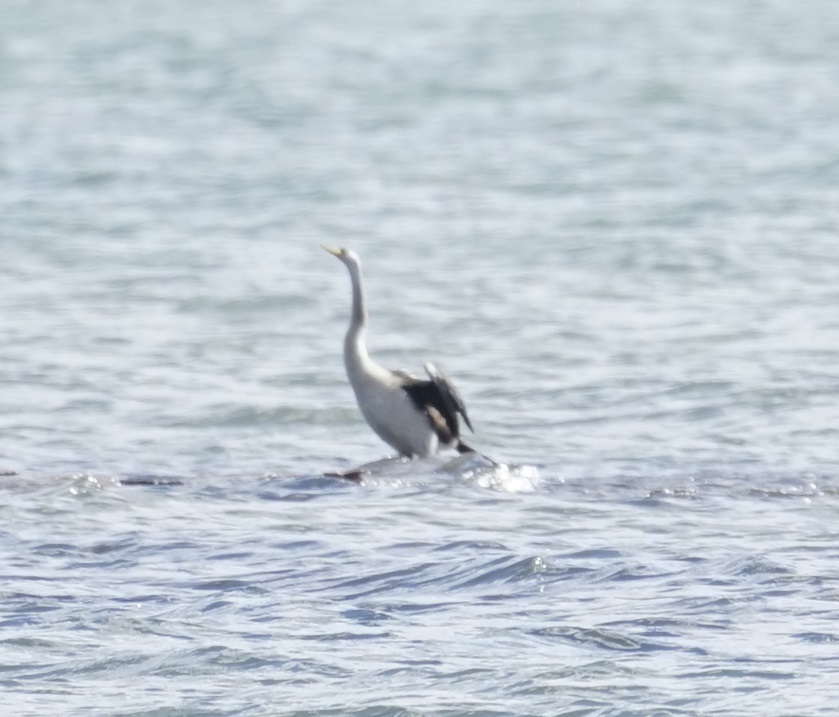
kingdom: Animalia
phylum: Chordata
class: Aves
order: Suliformes
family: Anhingidae
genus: Anhinga
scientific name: Anhinga novaehollandiae
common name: Australasian darter
